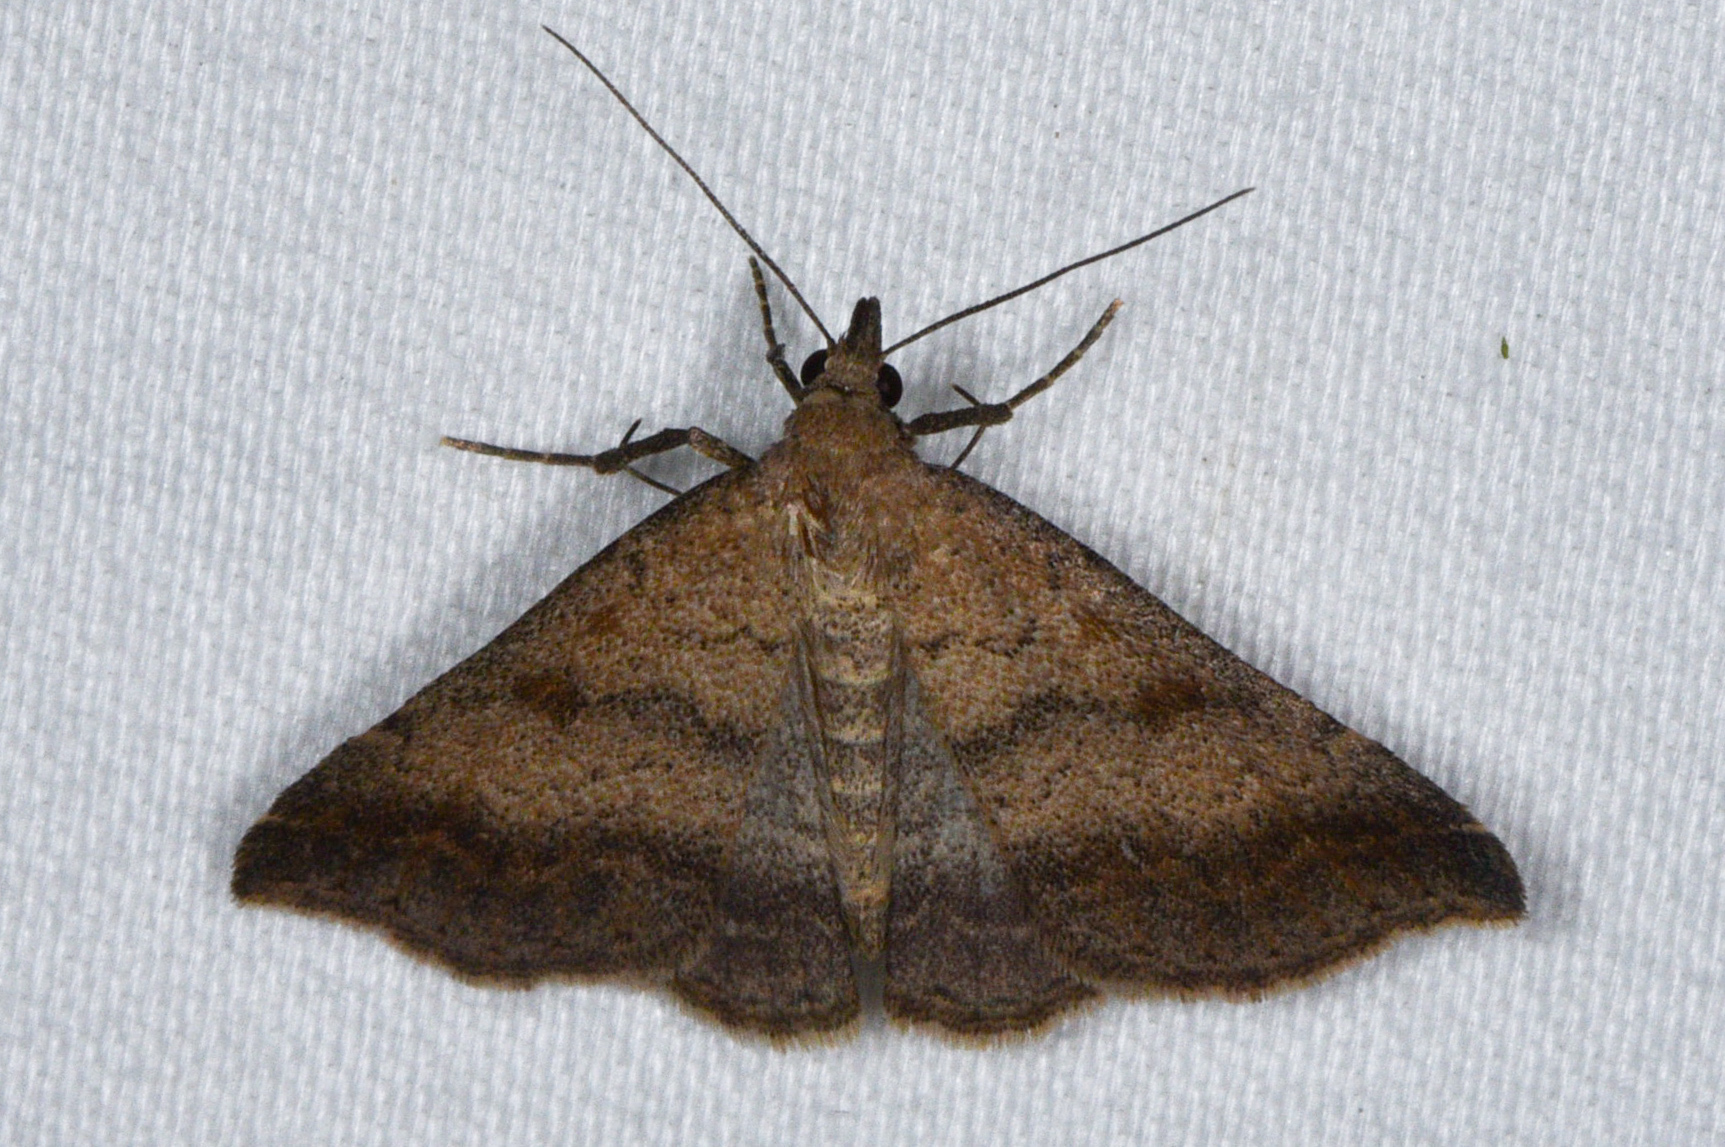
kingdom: Animalia
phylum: Arthropoda
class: Insecta
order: Lepidoptera
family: Erebidae
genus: Tetanolita
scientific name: Tetanolita palligera
